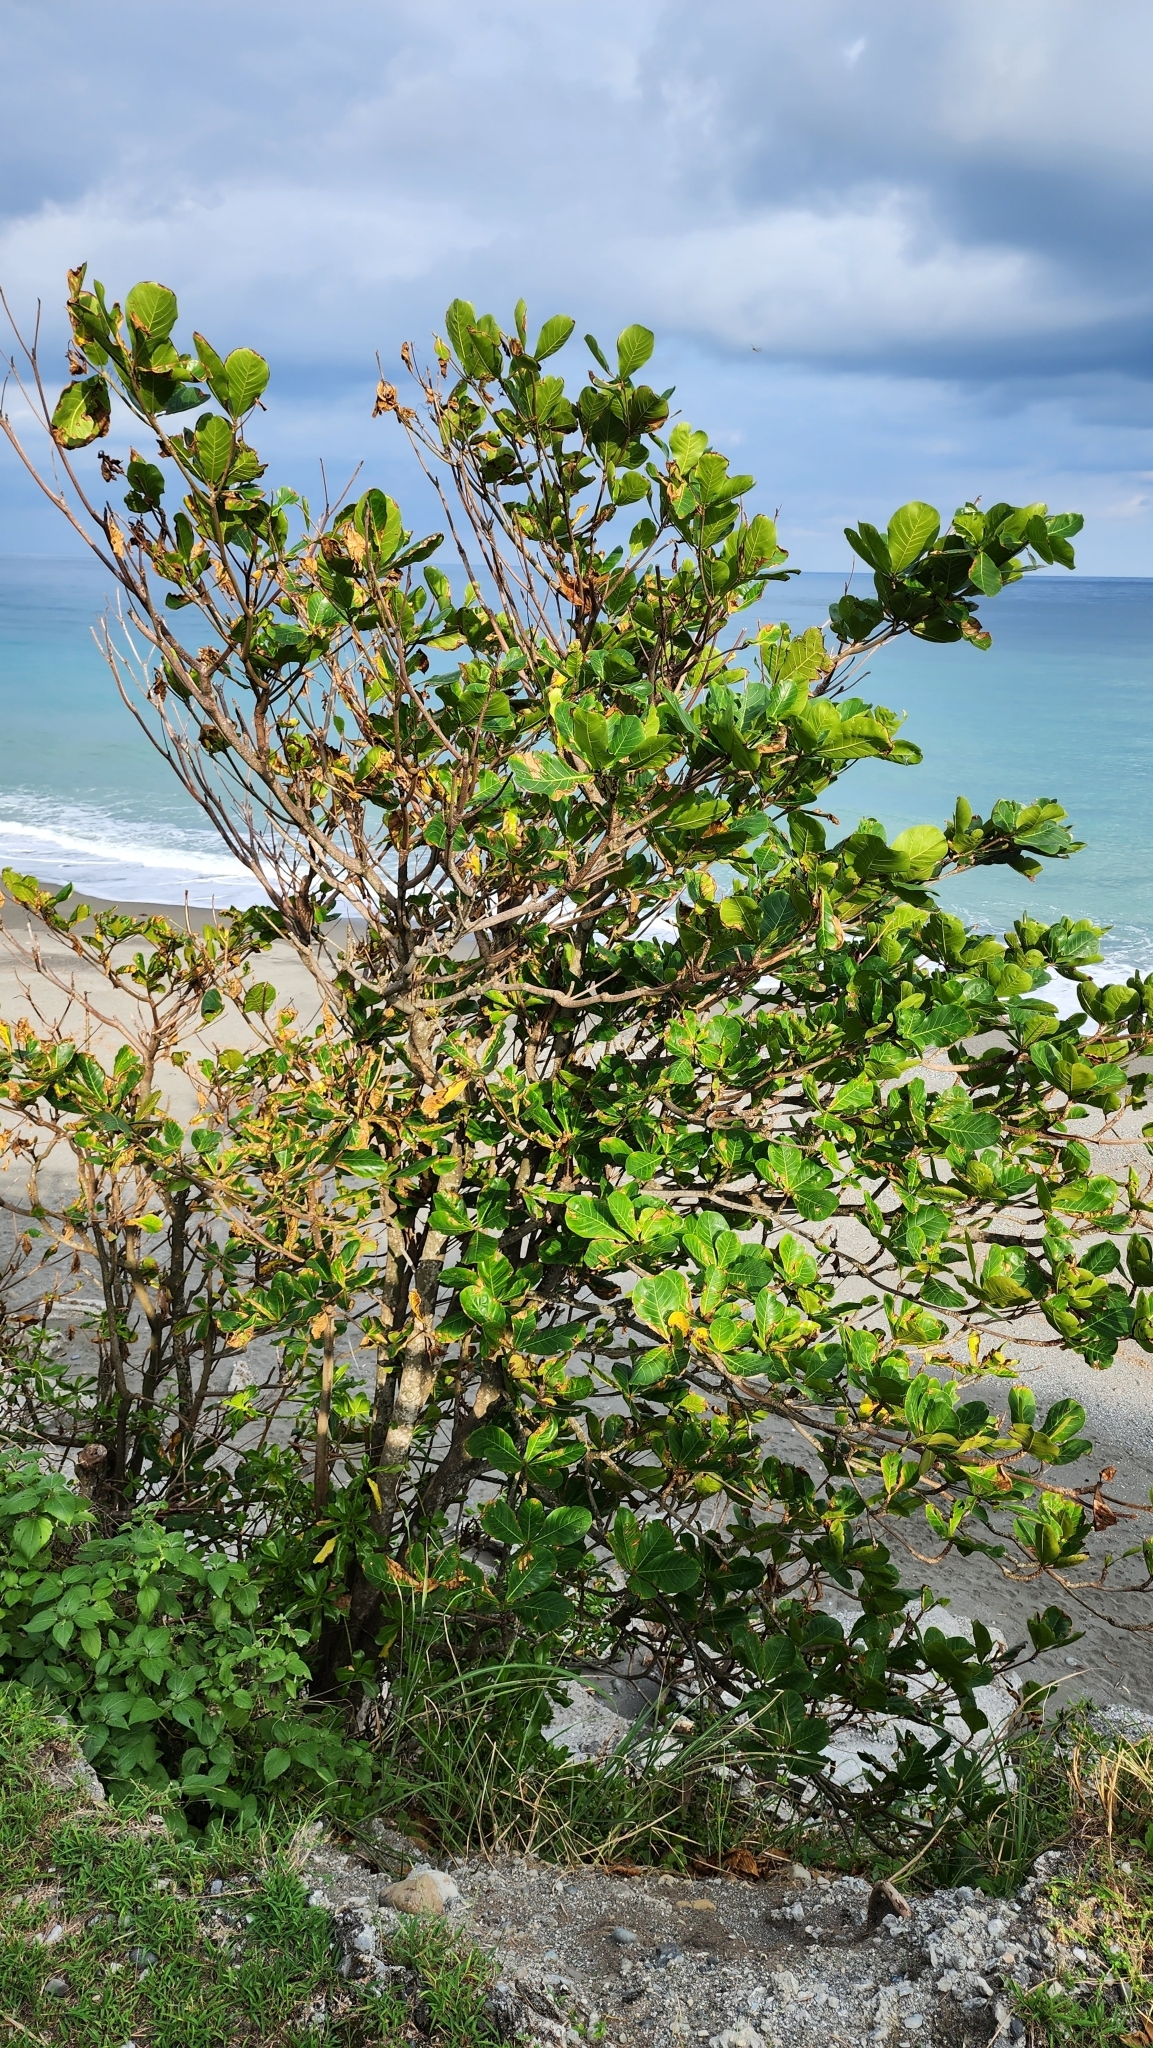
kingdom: Plantae
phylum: Tracheophyta
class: Magnoliopsida
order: Myrtales
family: Combretaceae
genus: Terminalia
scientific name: Terminalia catappa
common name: Tropical almond
